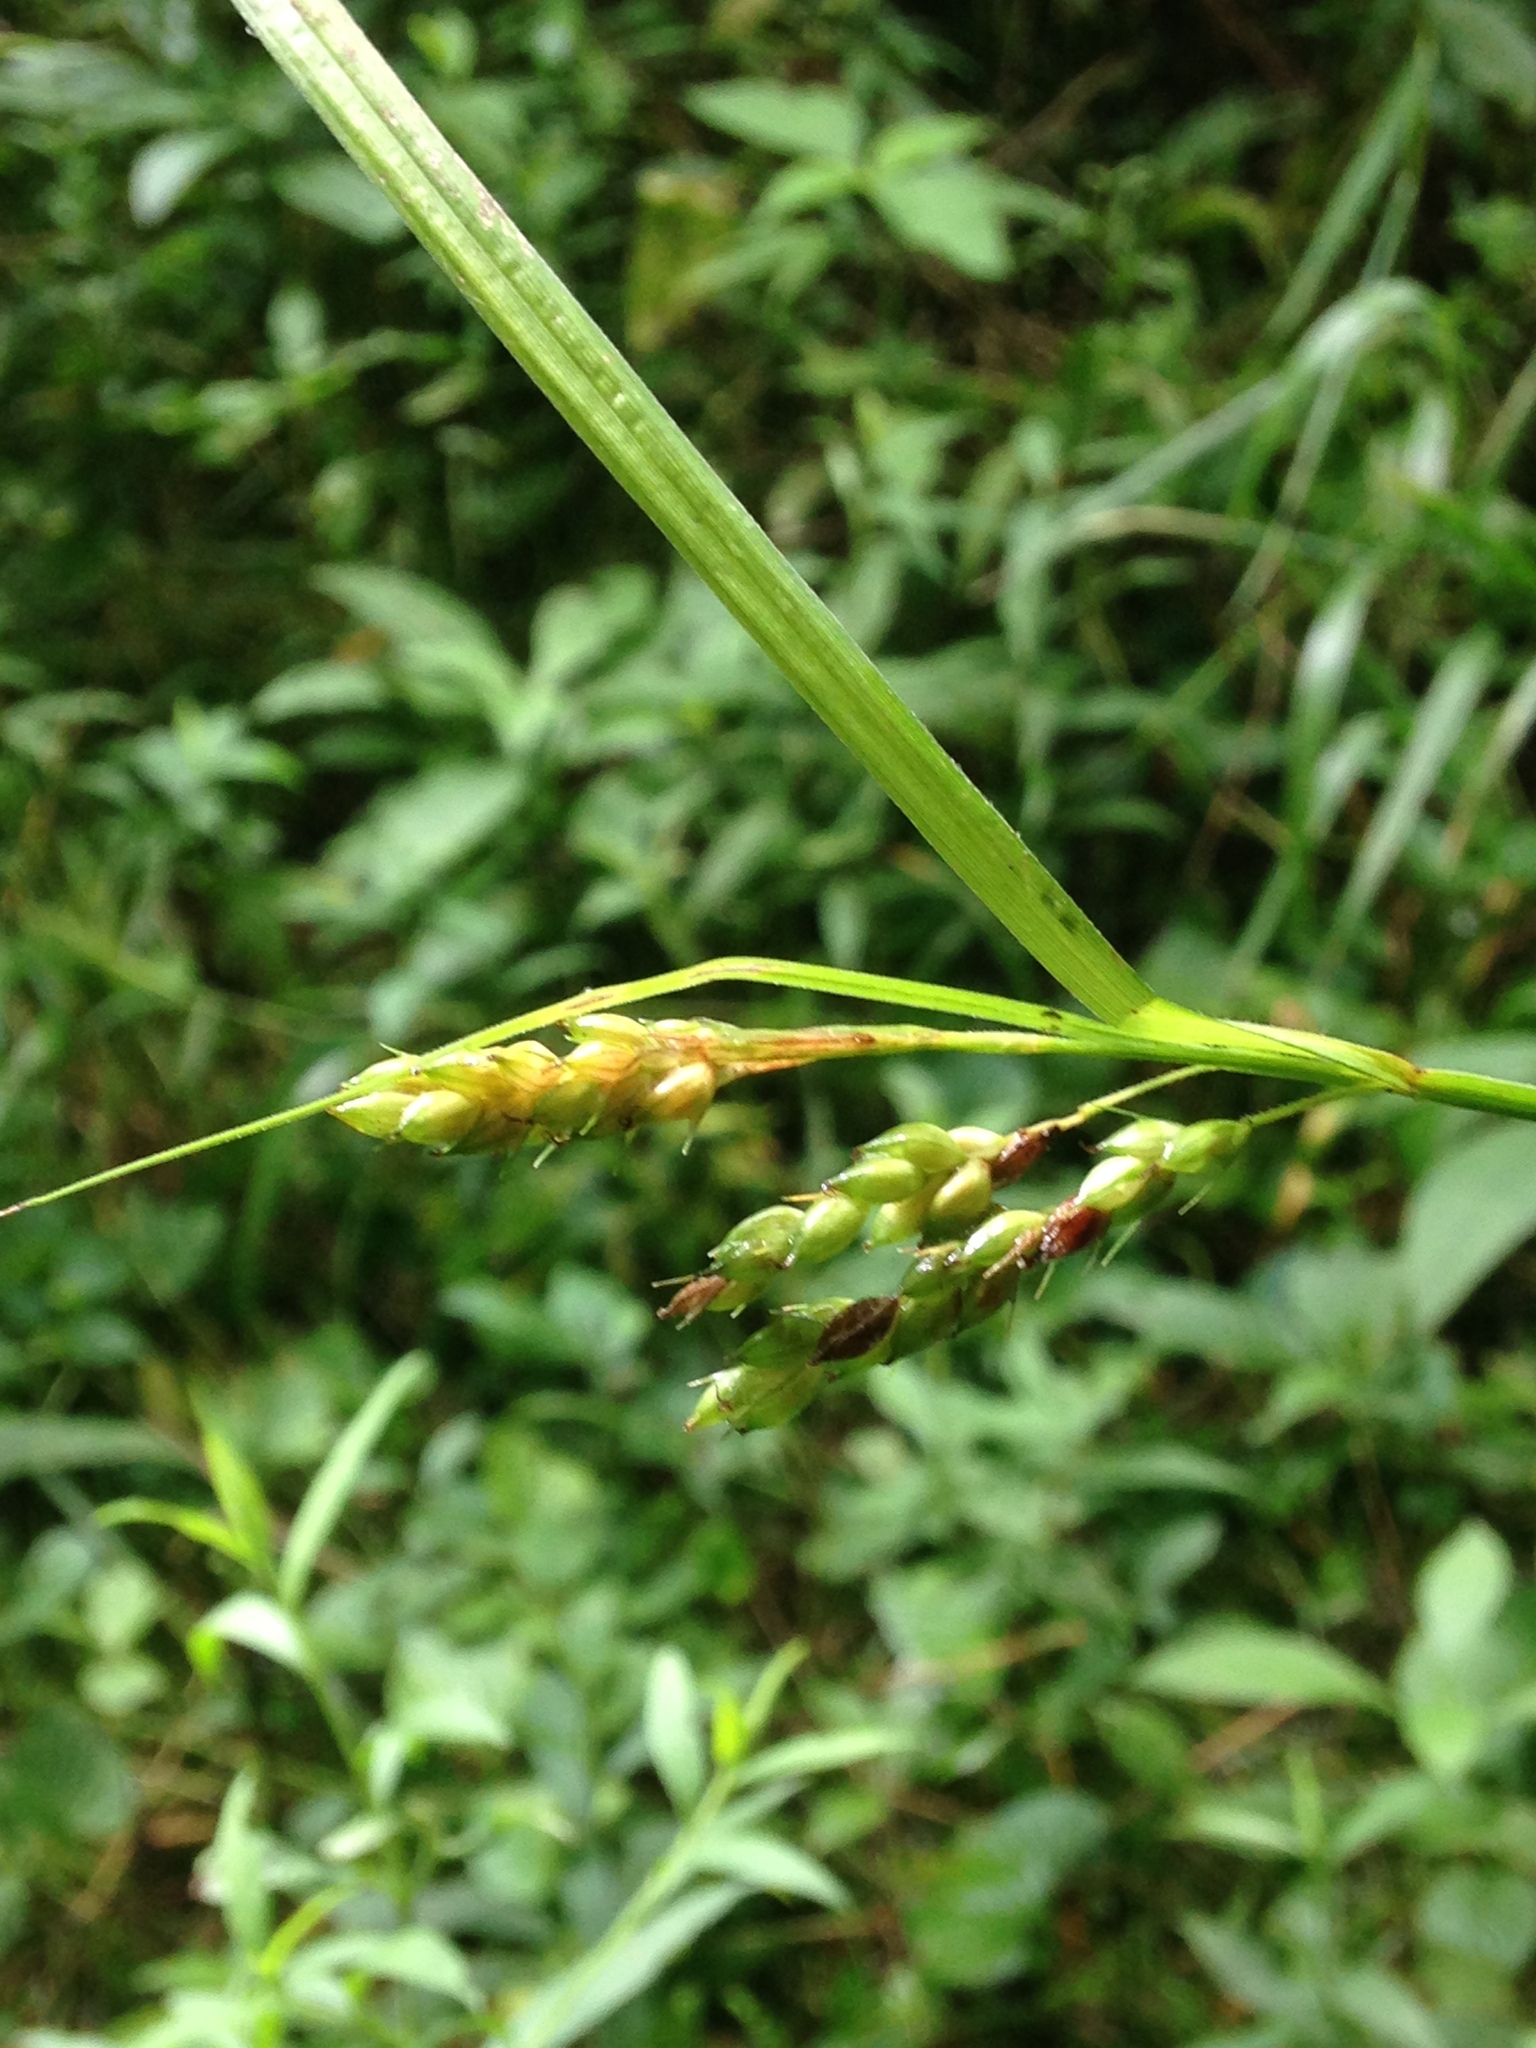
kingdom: Plantae
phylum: Tracheophyta
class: Liliopsida
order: Poales
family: Cyperaceae
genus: Carex
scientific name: Carex davisii
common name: Davis' sedge
